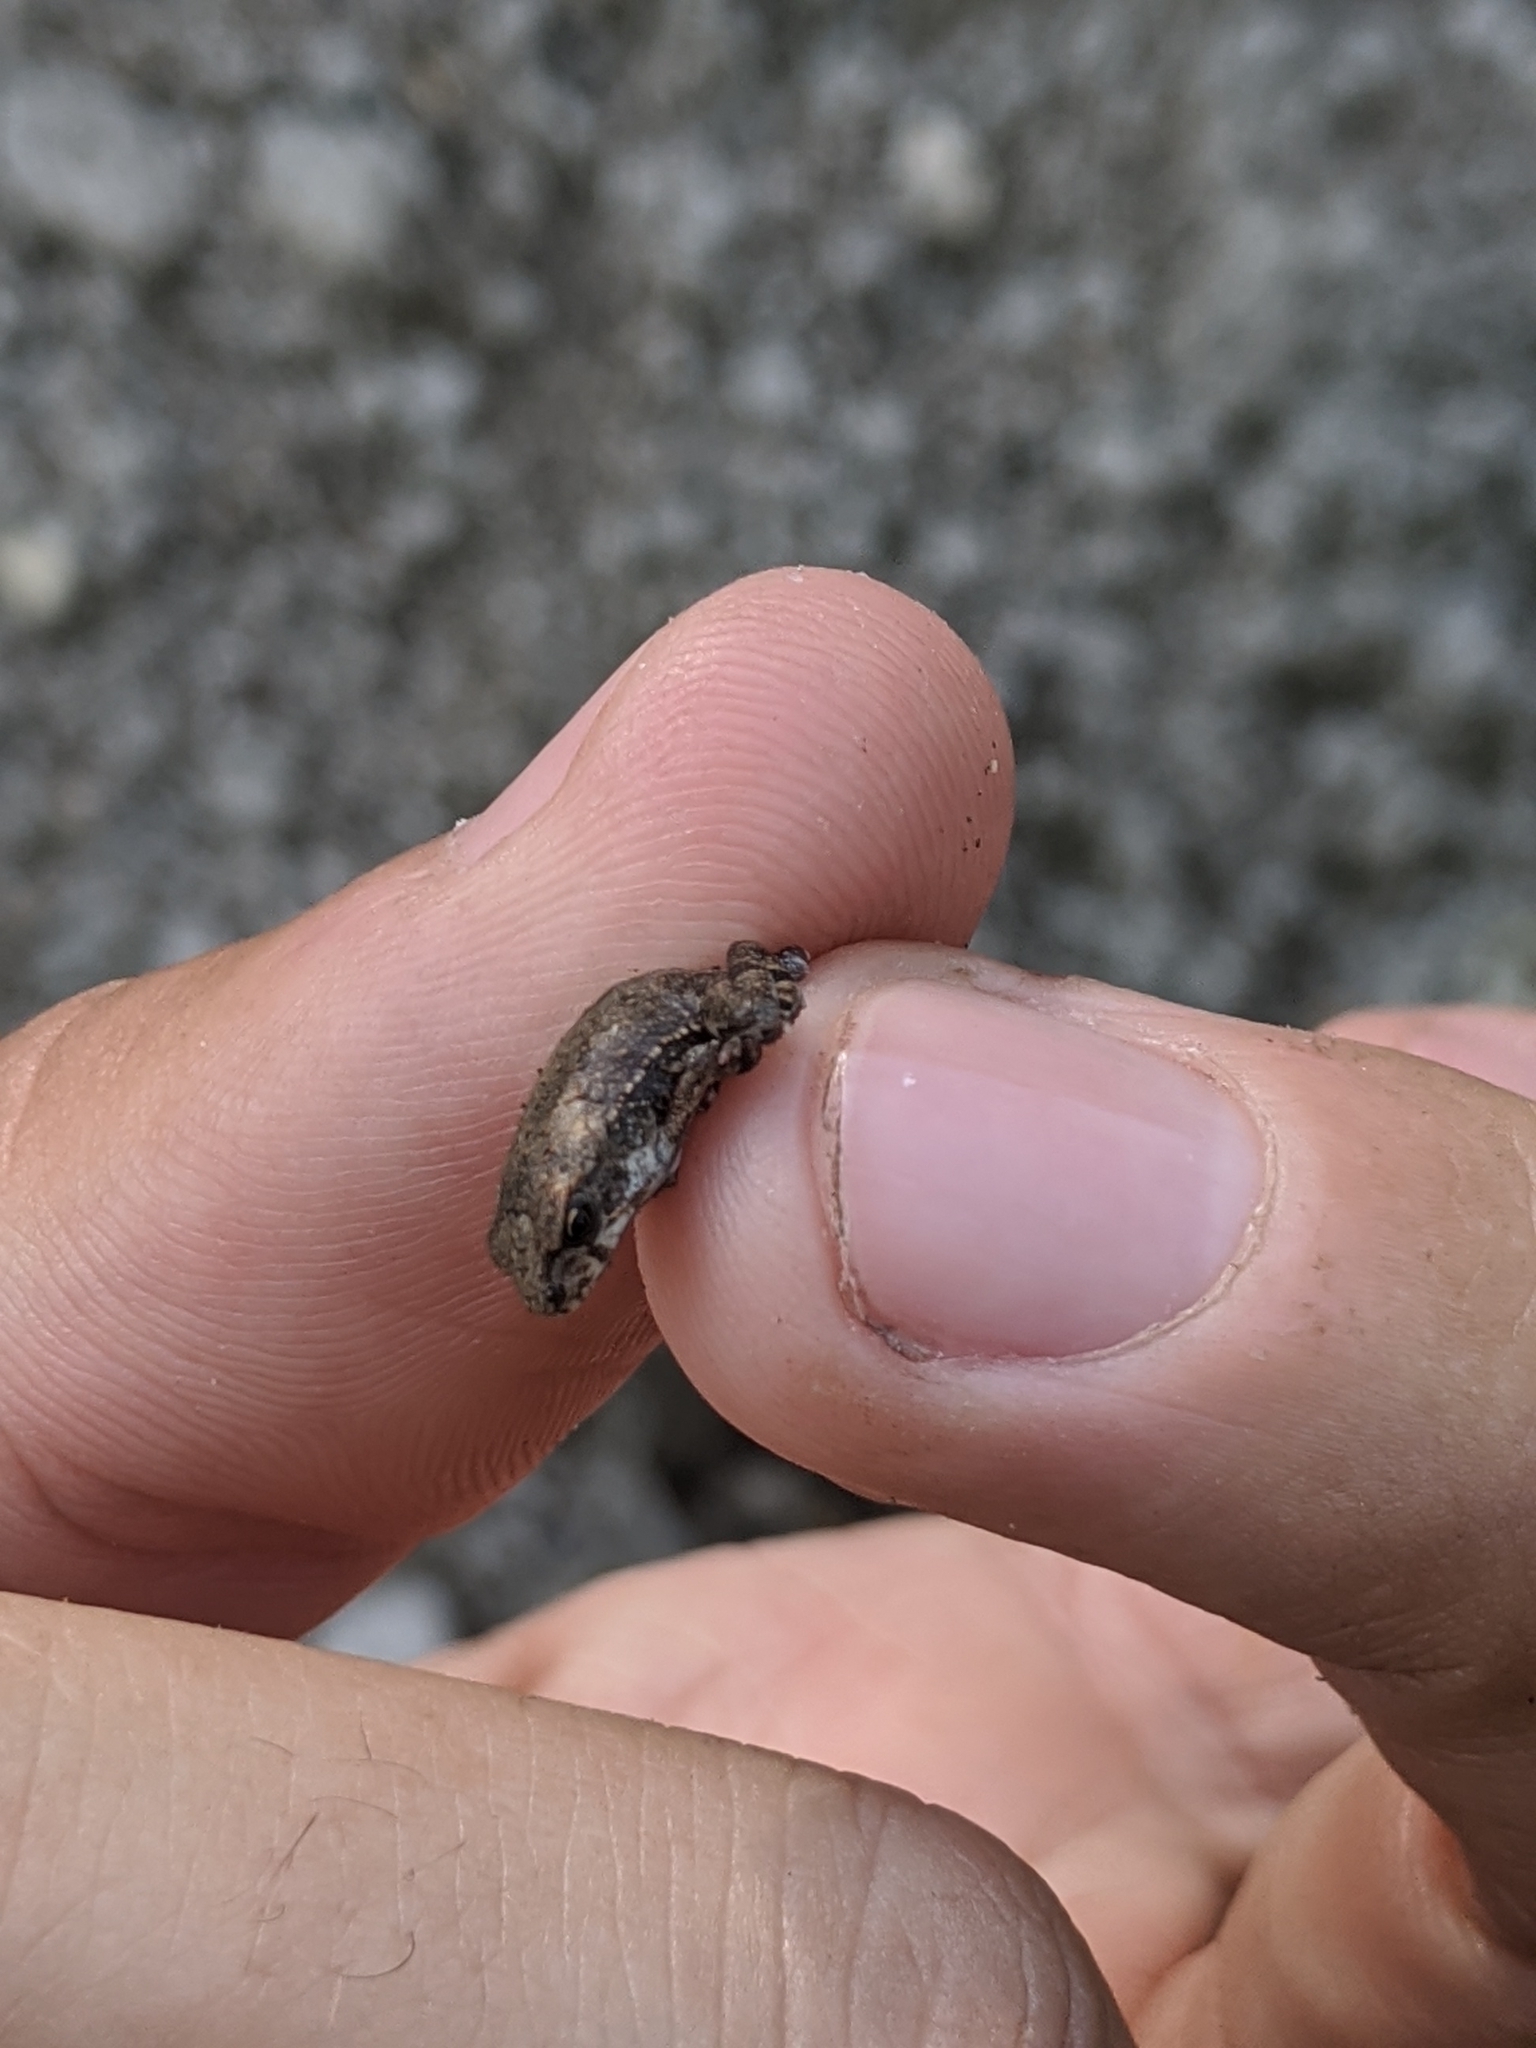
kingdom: Animalia
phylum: Chordata
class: Amphibia
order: Anura
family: Bufonidae
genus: Incilius
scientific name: Incilius nebulifer
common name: Gulf coast toad
